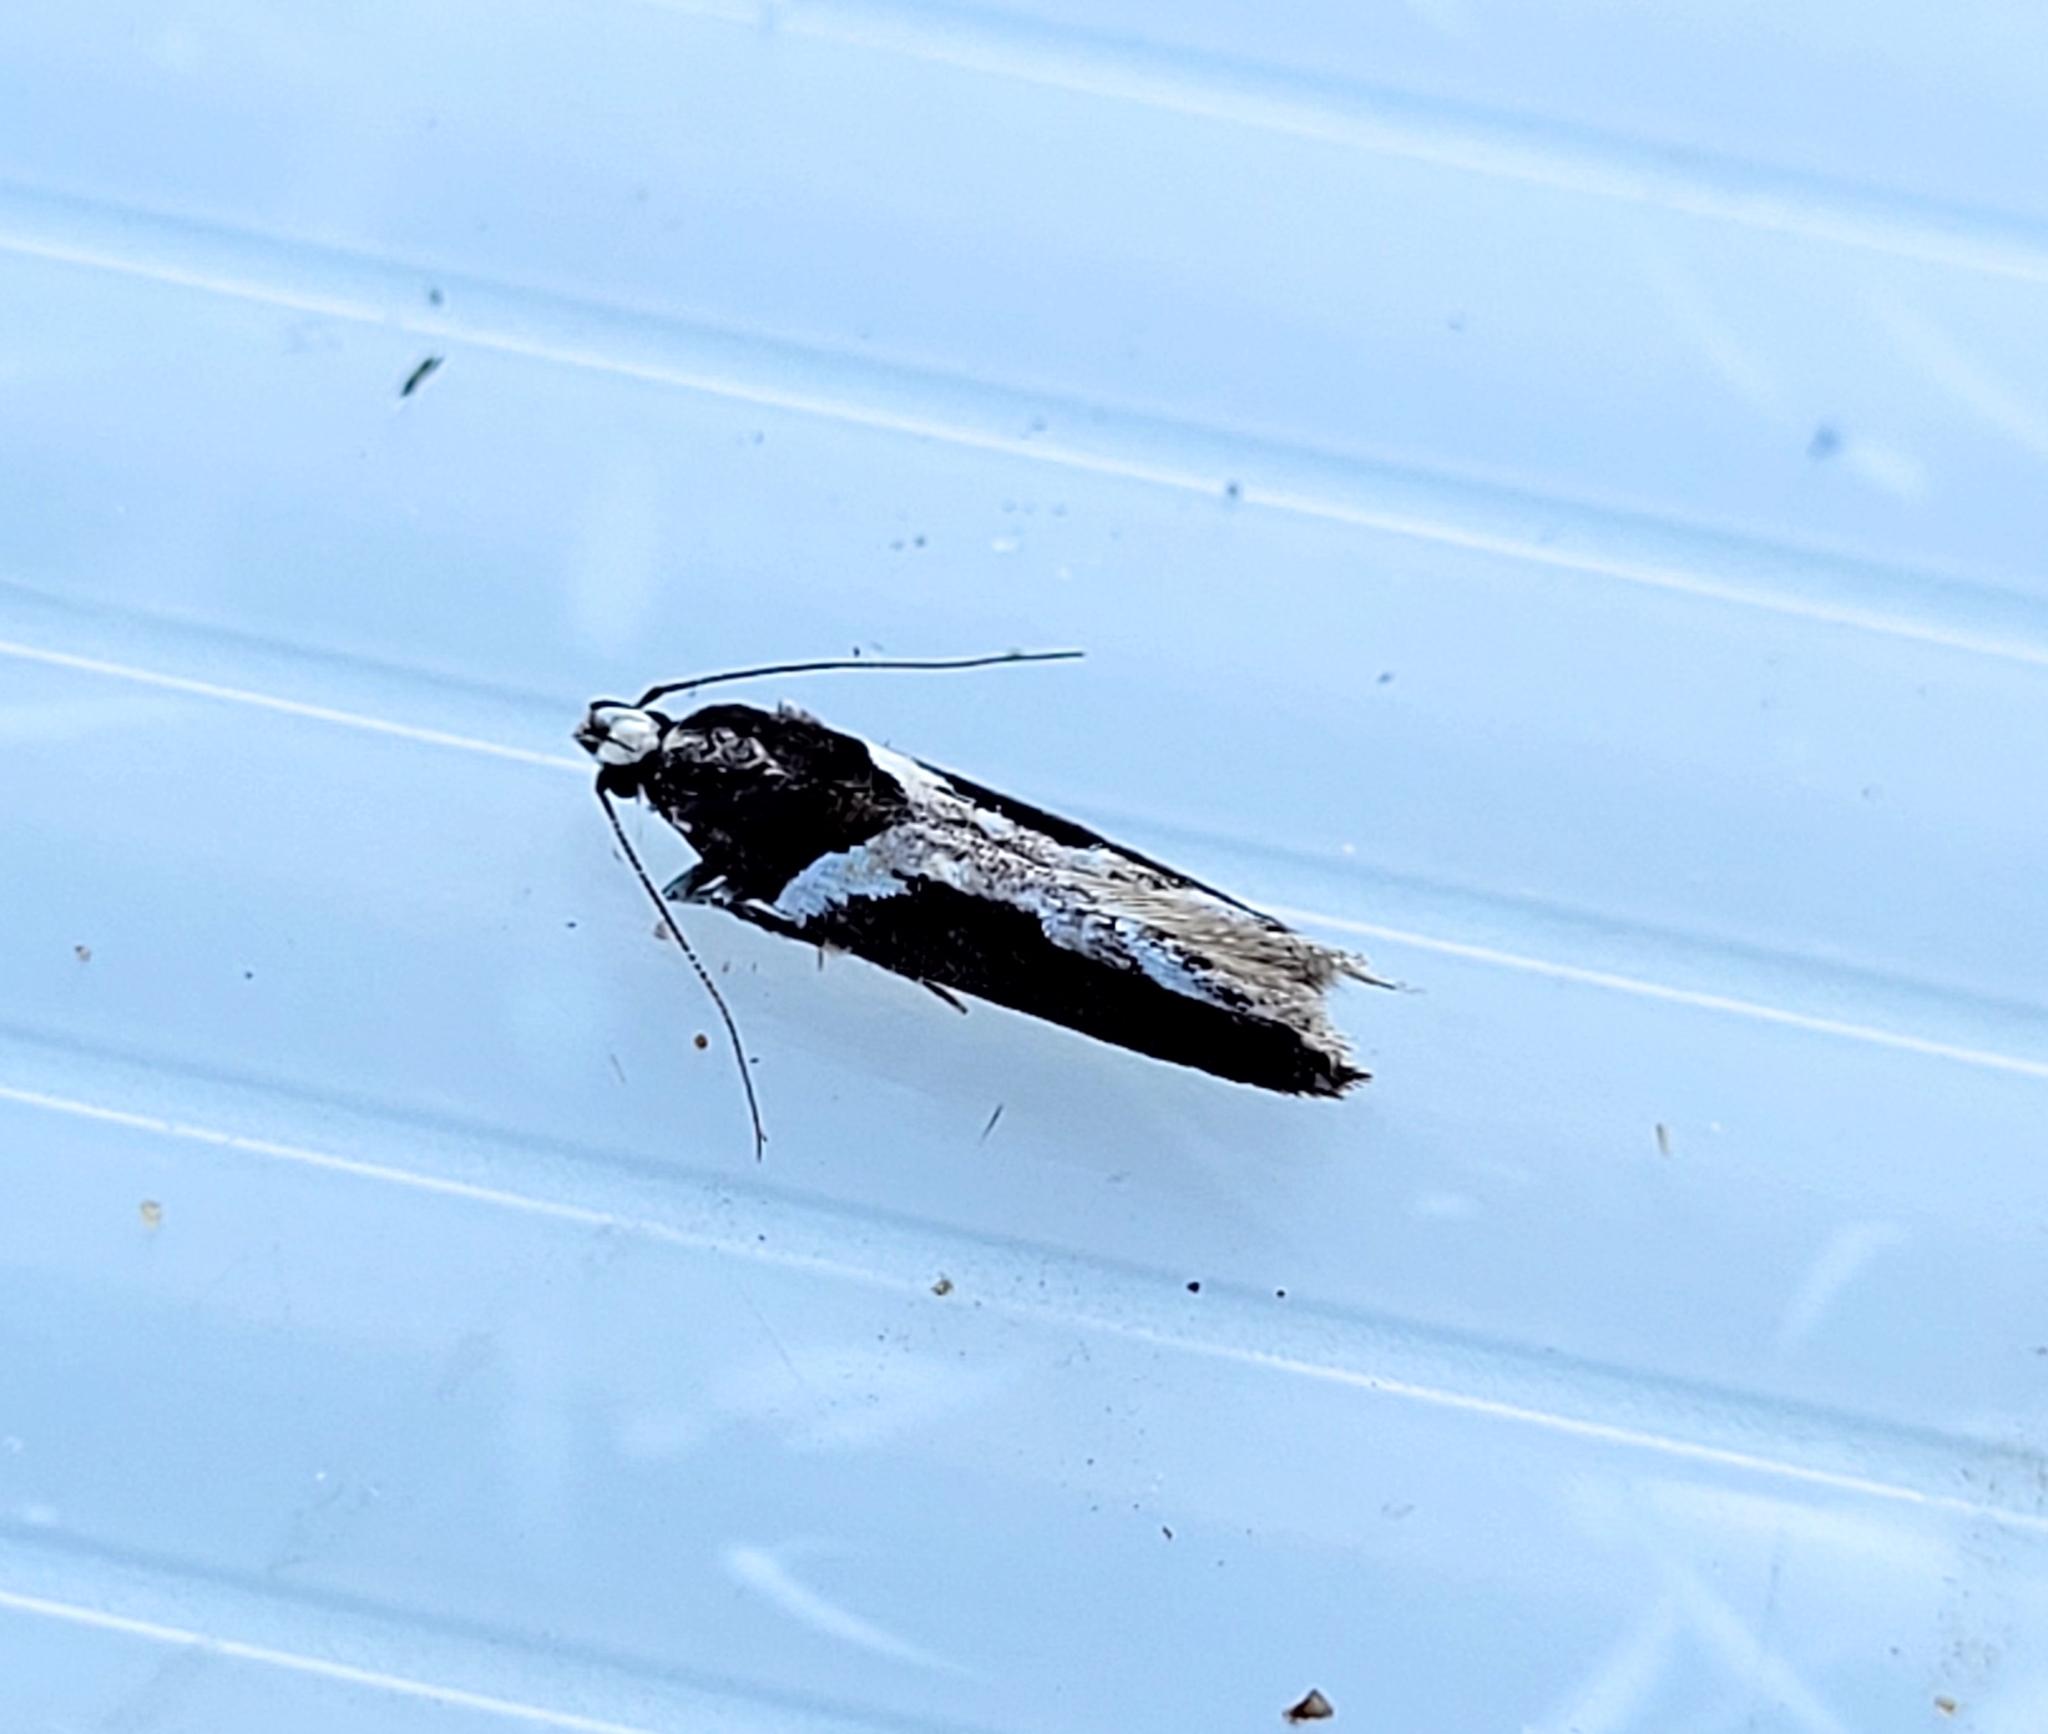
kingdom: Animalia
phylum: Arthropoda
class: Insecta
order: Lepidoptera
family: Gelechiidae
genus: Telphusa
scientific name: Telphusa longifasciella
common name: Y-backed telphusa
